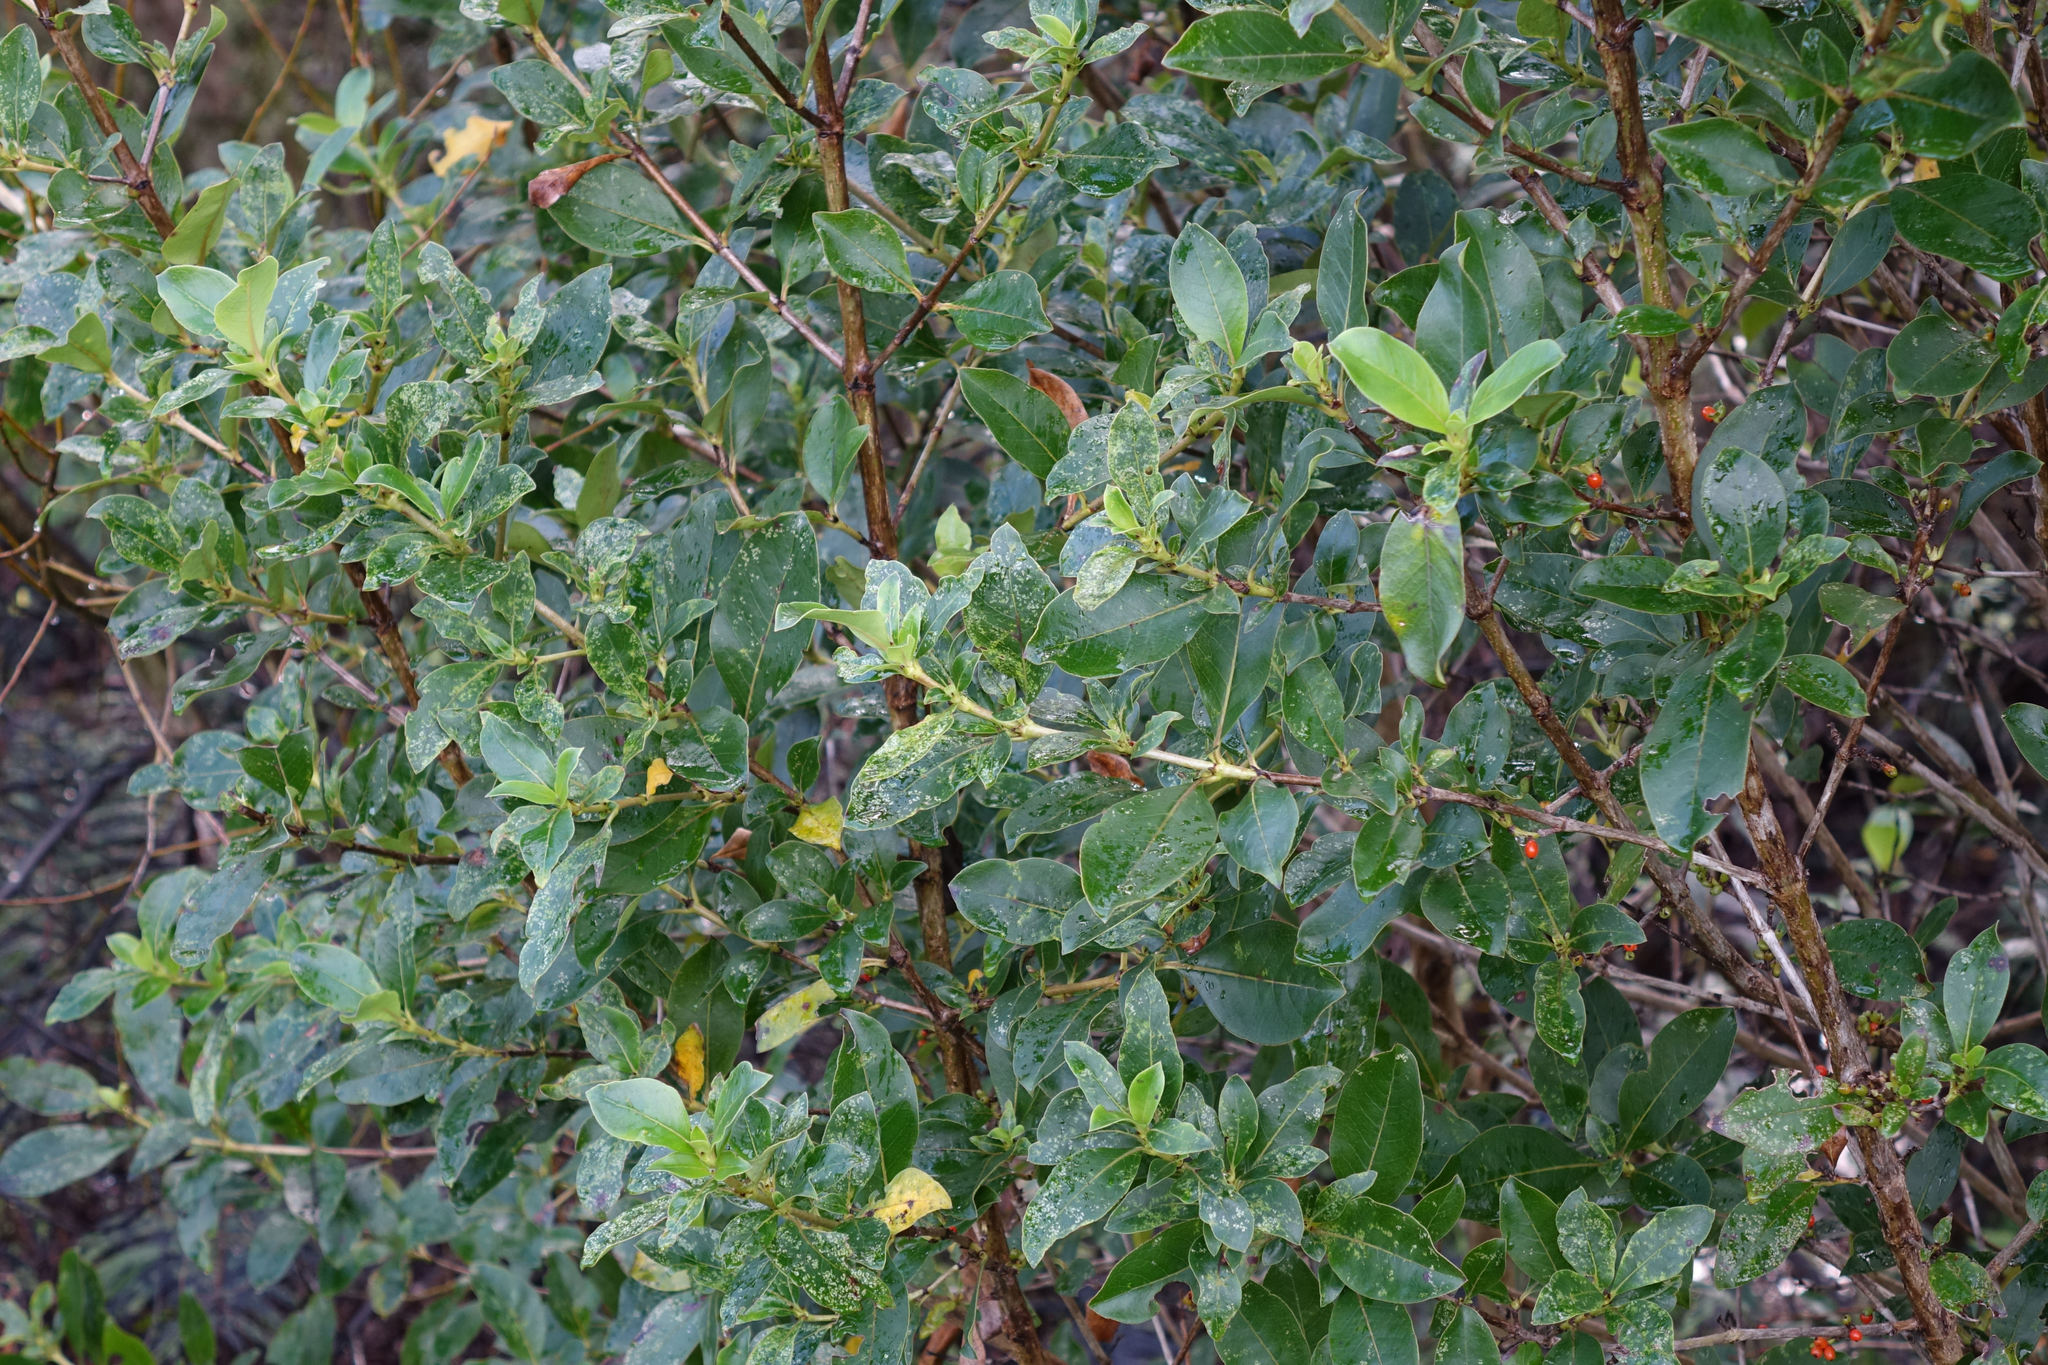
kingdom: Plantae
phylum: Tracheophyta
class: Magnoliopsida
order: Gentianales
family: Rubiaceae
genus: Coprosma
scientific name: Coprosma robusta
